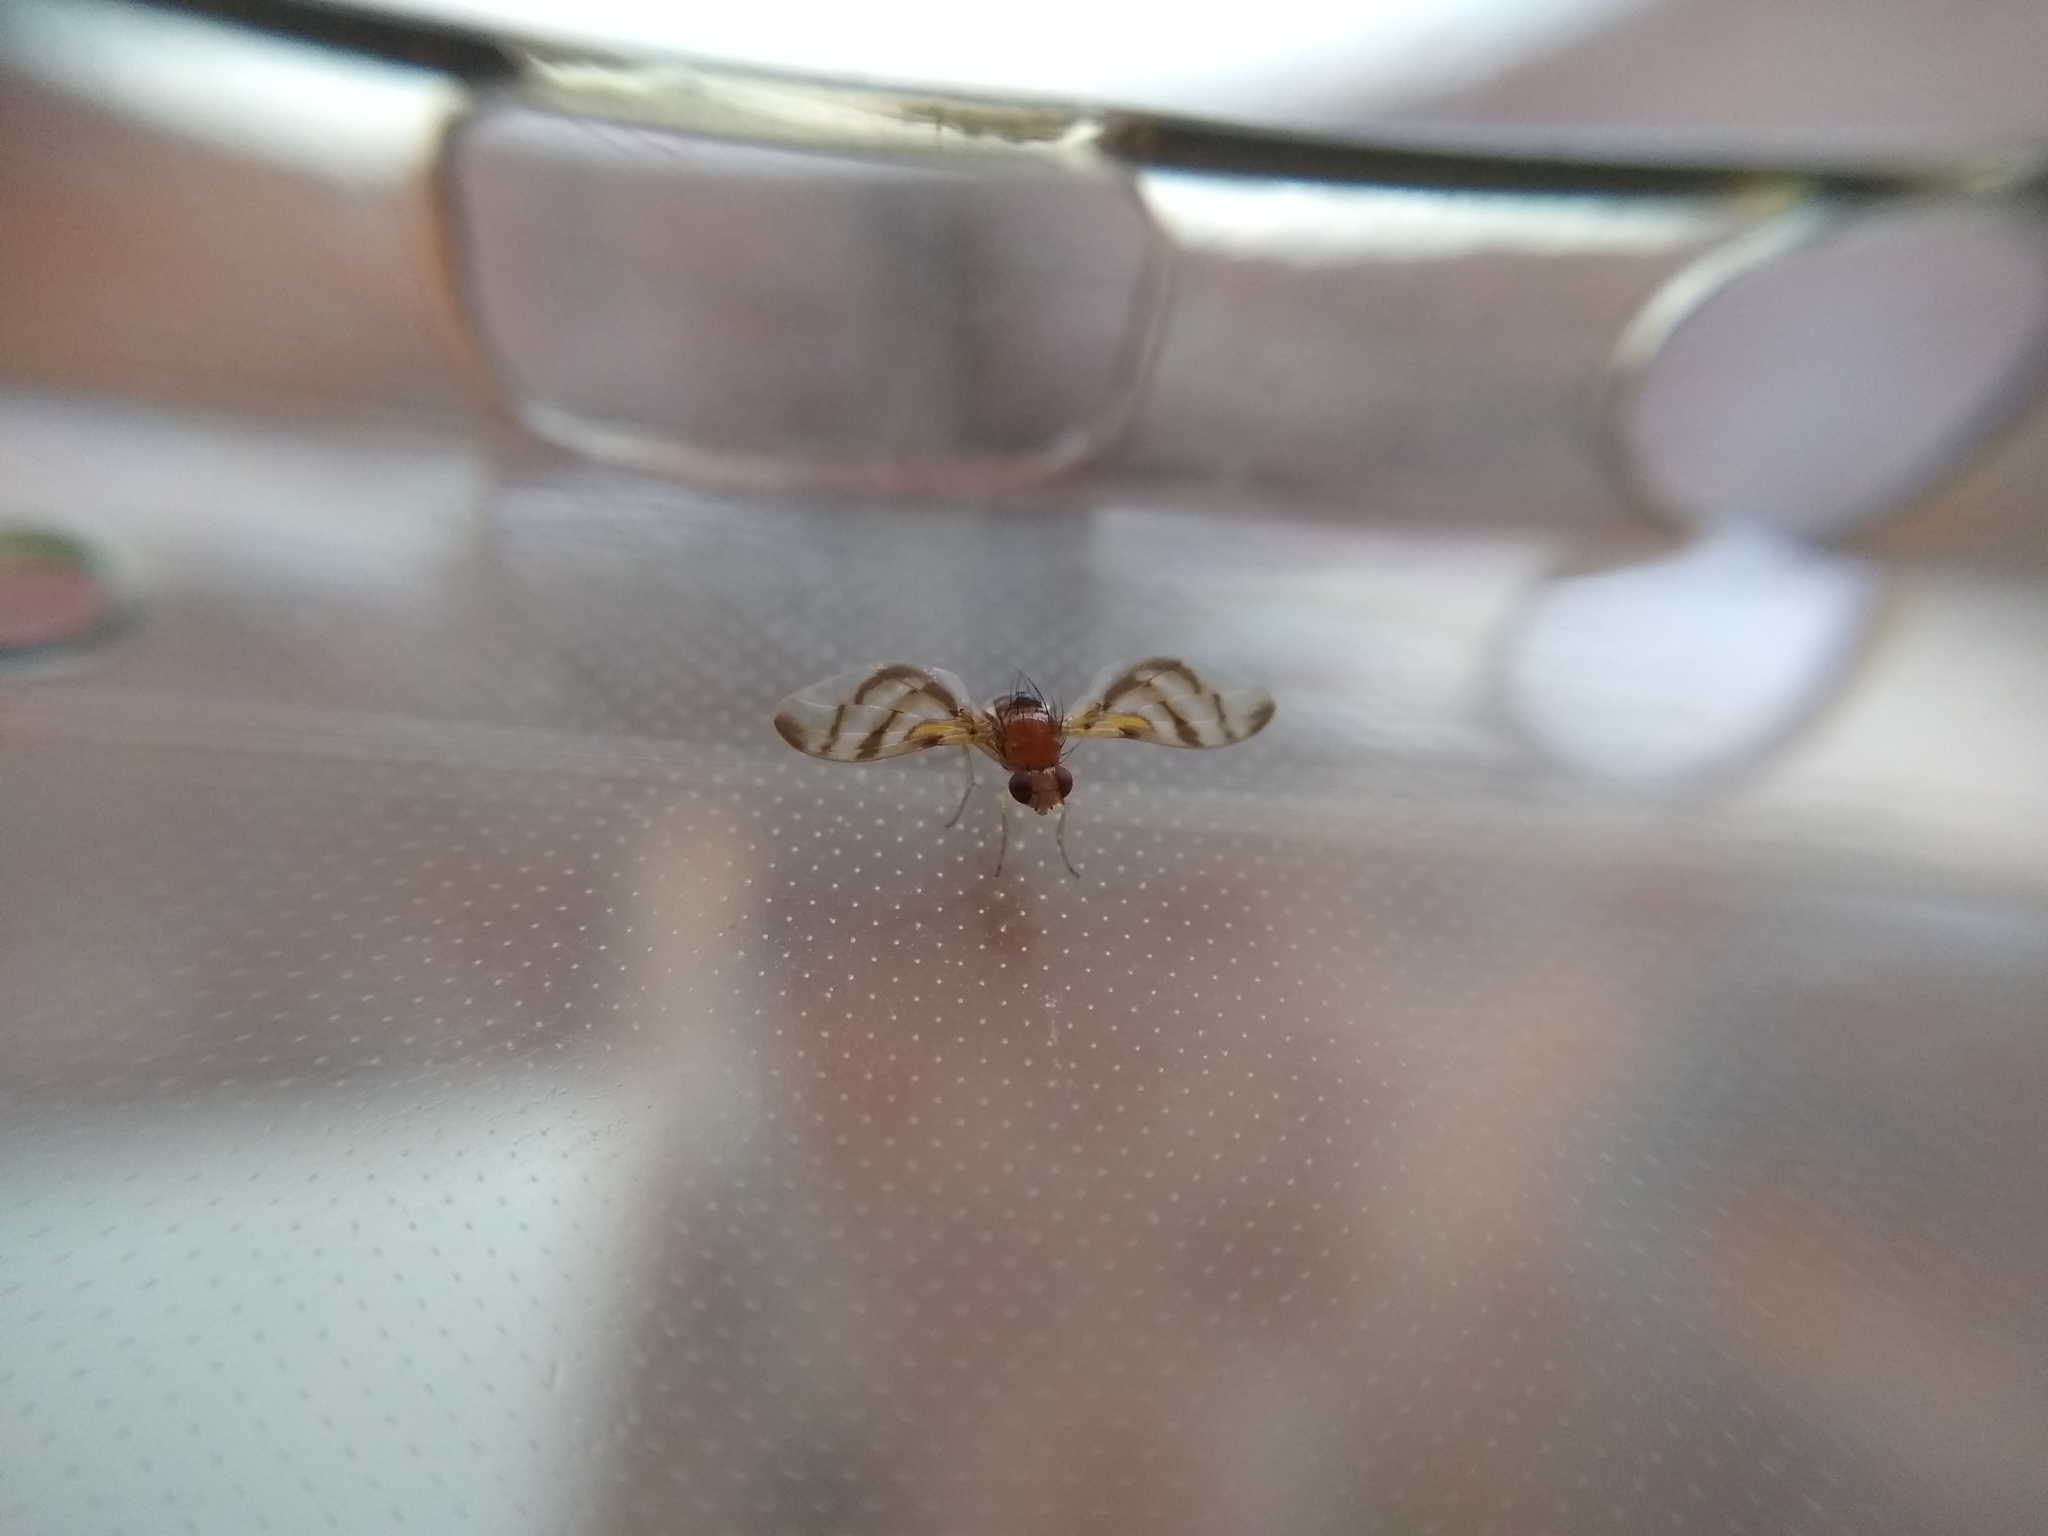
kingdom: Animalia
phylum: Arthropoda
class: Insecta
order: Diptera
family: Lauxaniidae
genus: Xenopterella
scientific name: Xenopterella obliqua
